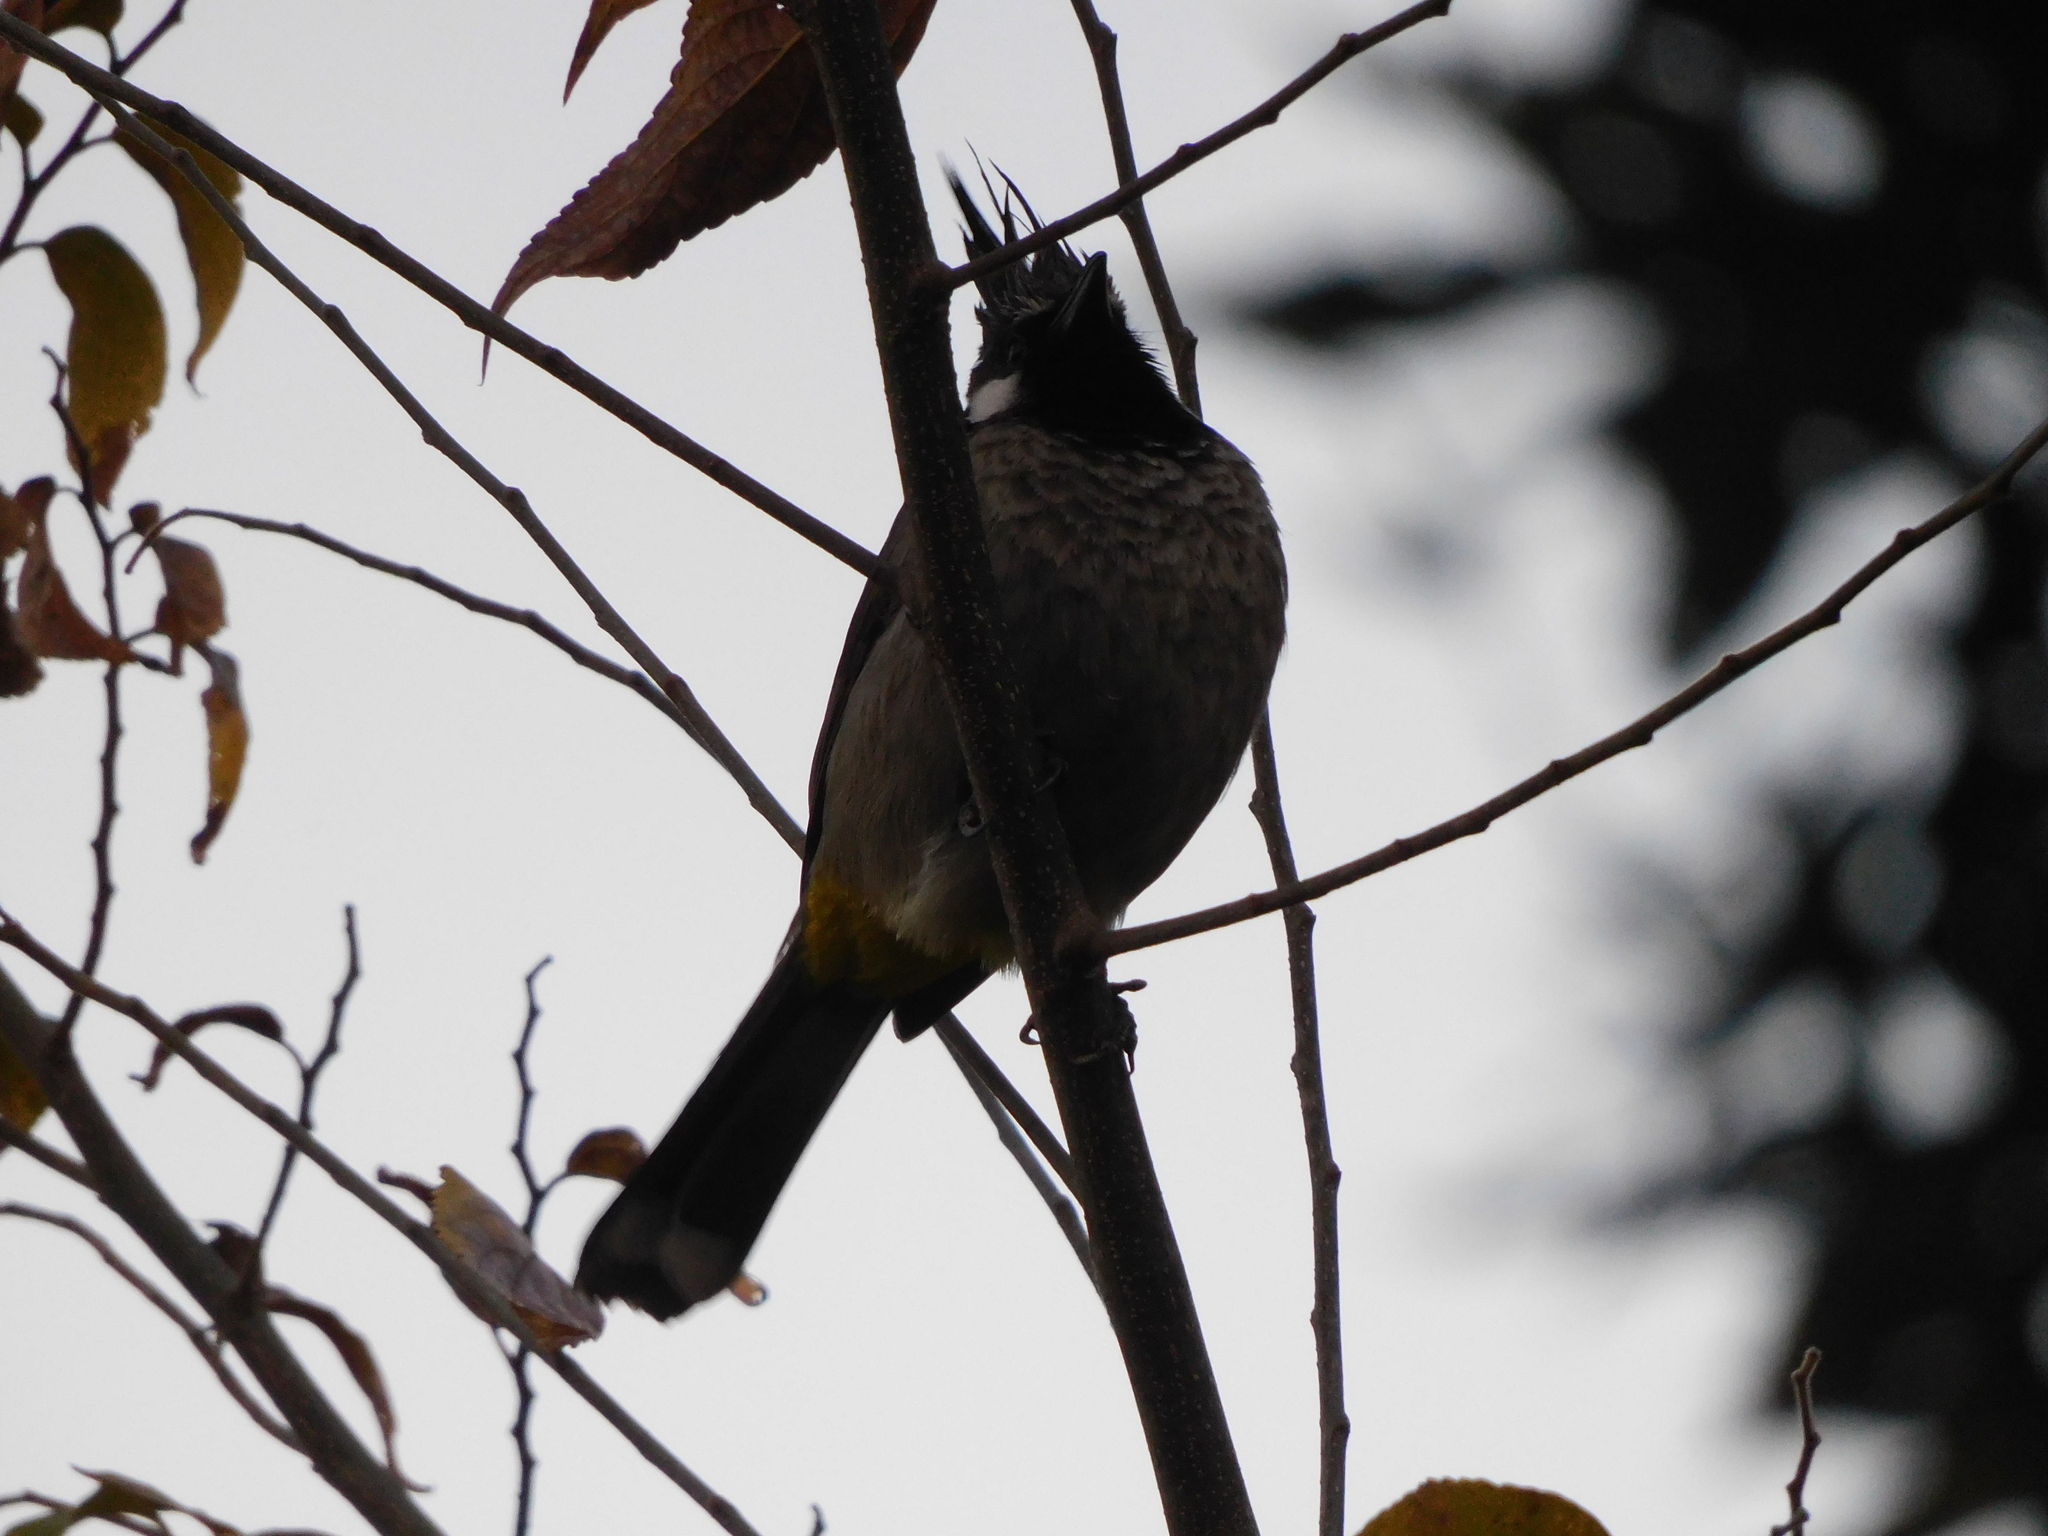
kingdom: Animalia
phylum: Chordata
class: Aves
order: Passeriformes
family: Pycnonotidae
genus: Pycnonotus
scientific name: Pycnonotus leucogenys
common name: Himalayan bulbul
